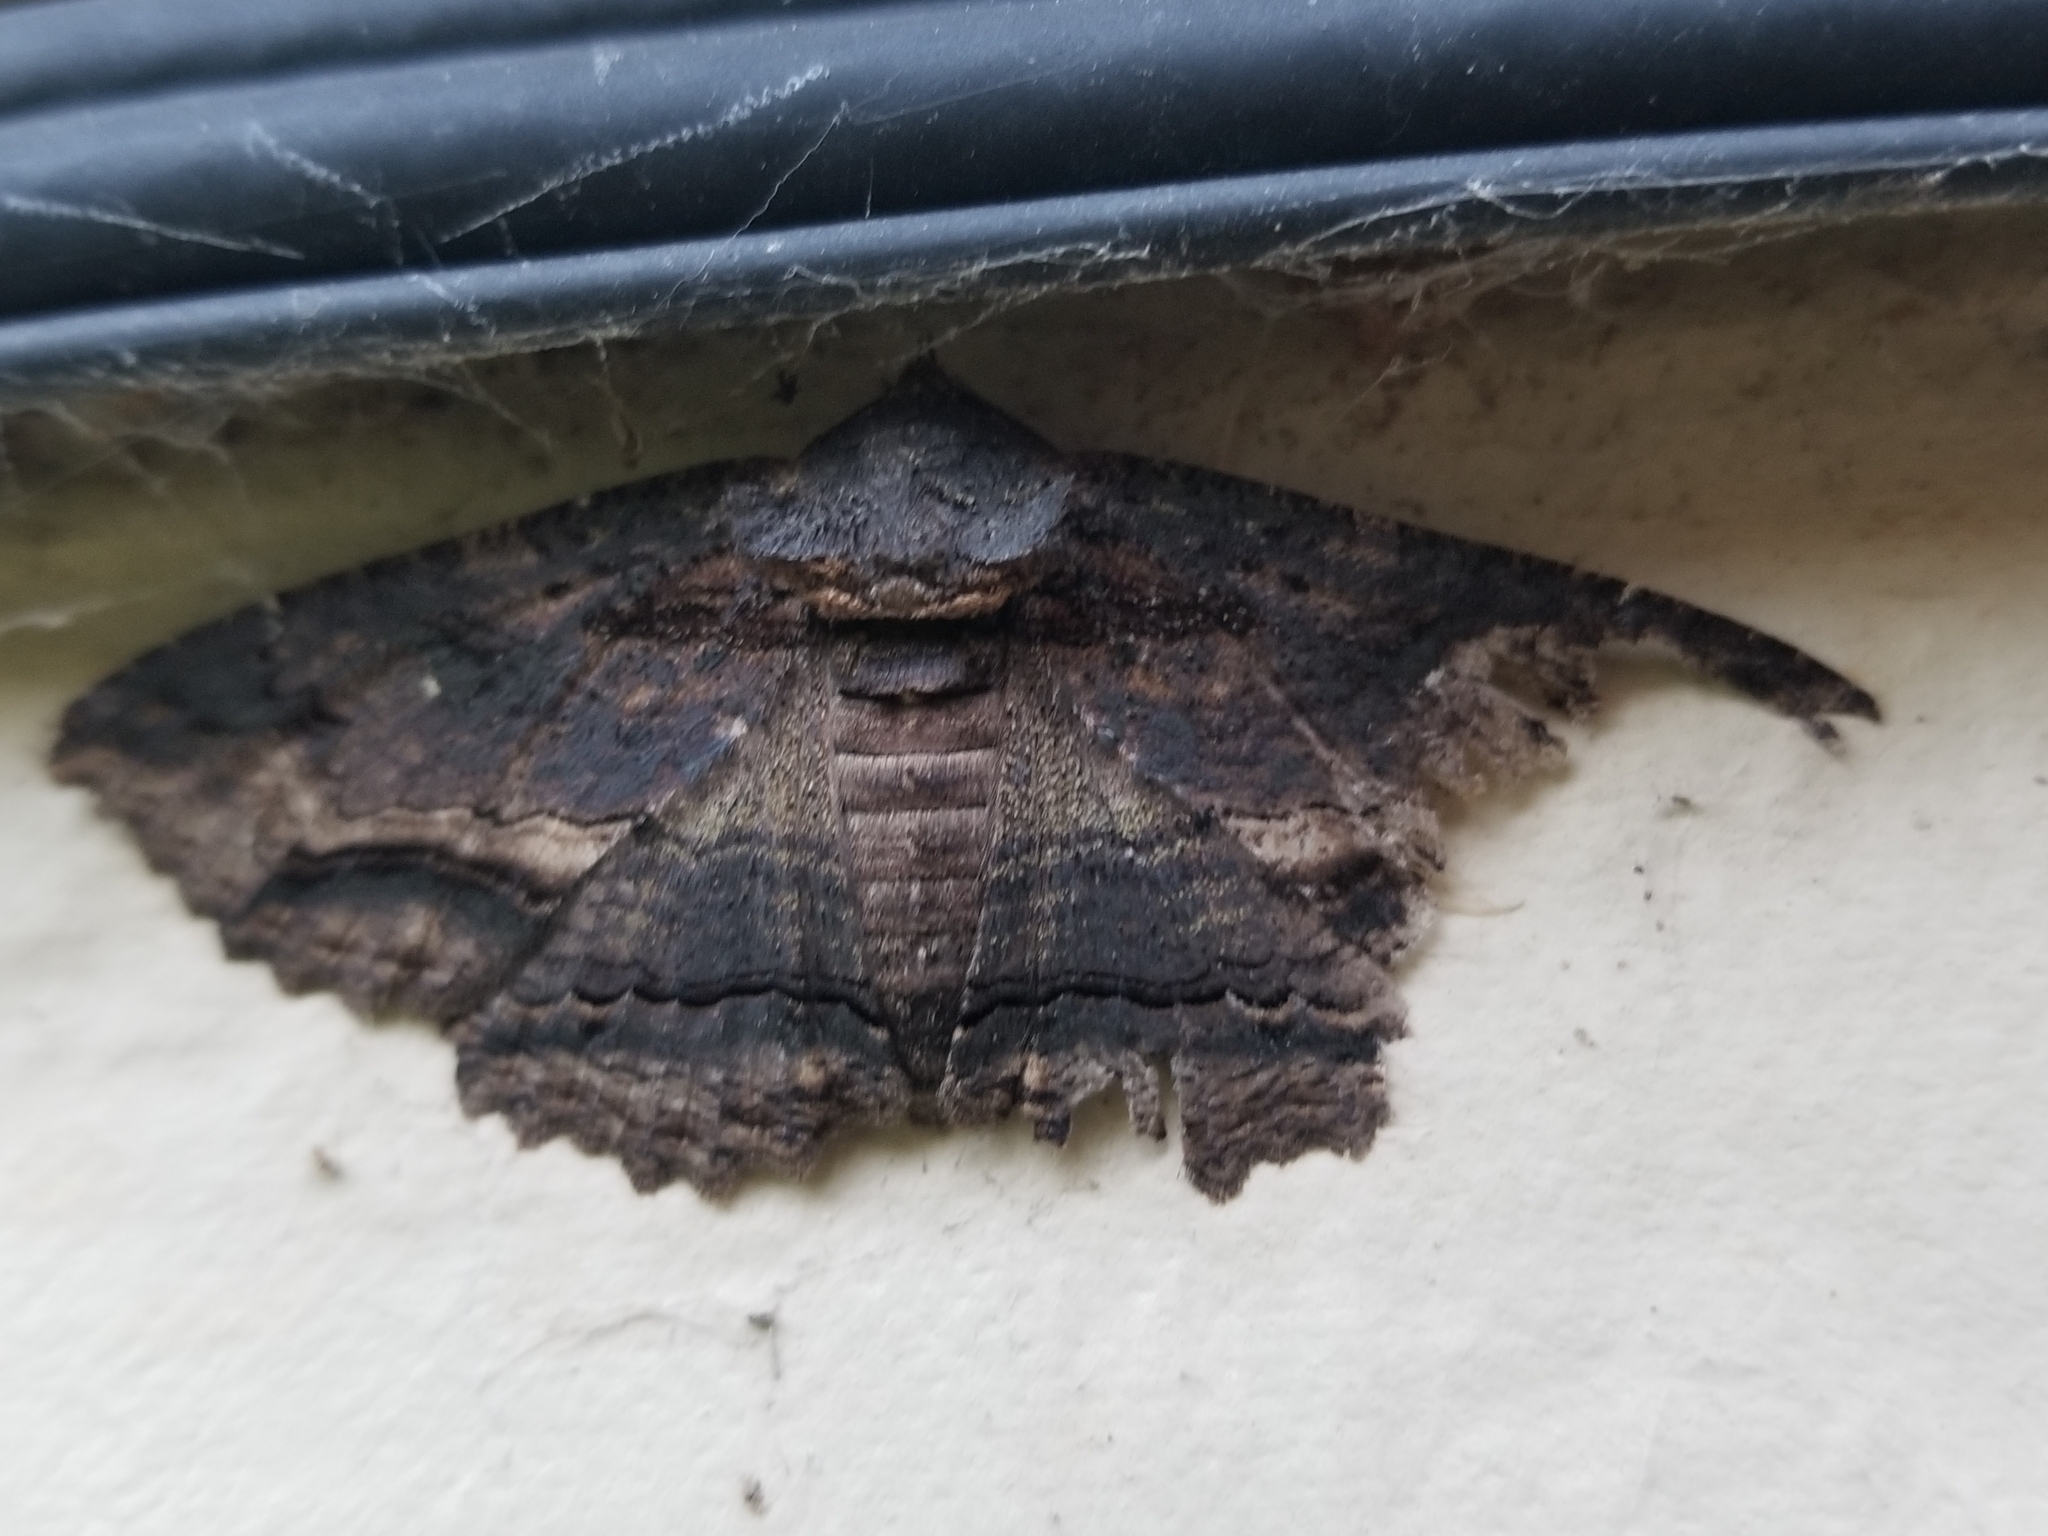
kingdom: Animalia
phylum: Arthropoda
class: Insecta
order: Lepidoptera
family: Erebidae
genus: Zale
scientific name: Zale lunata
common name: Lunate zale moth
